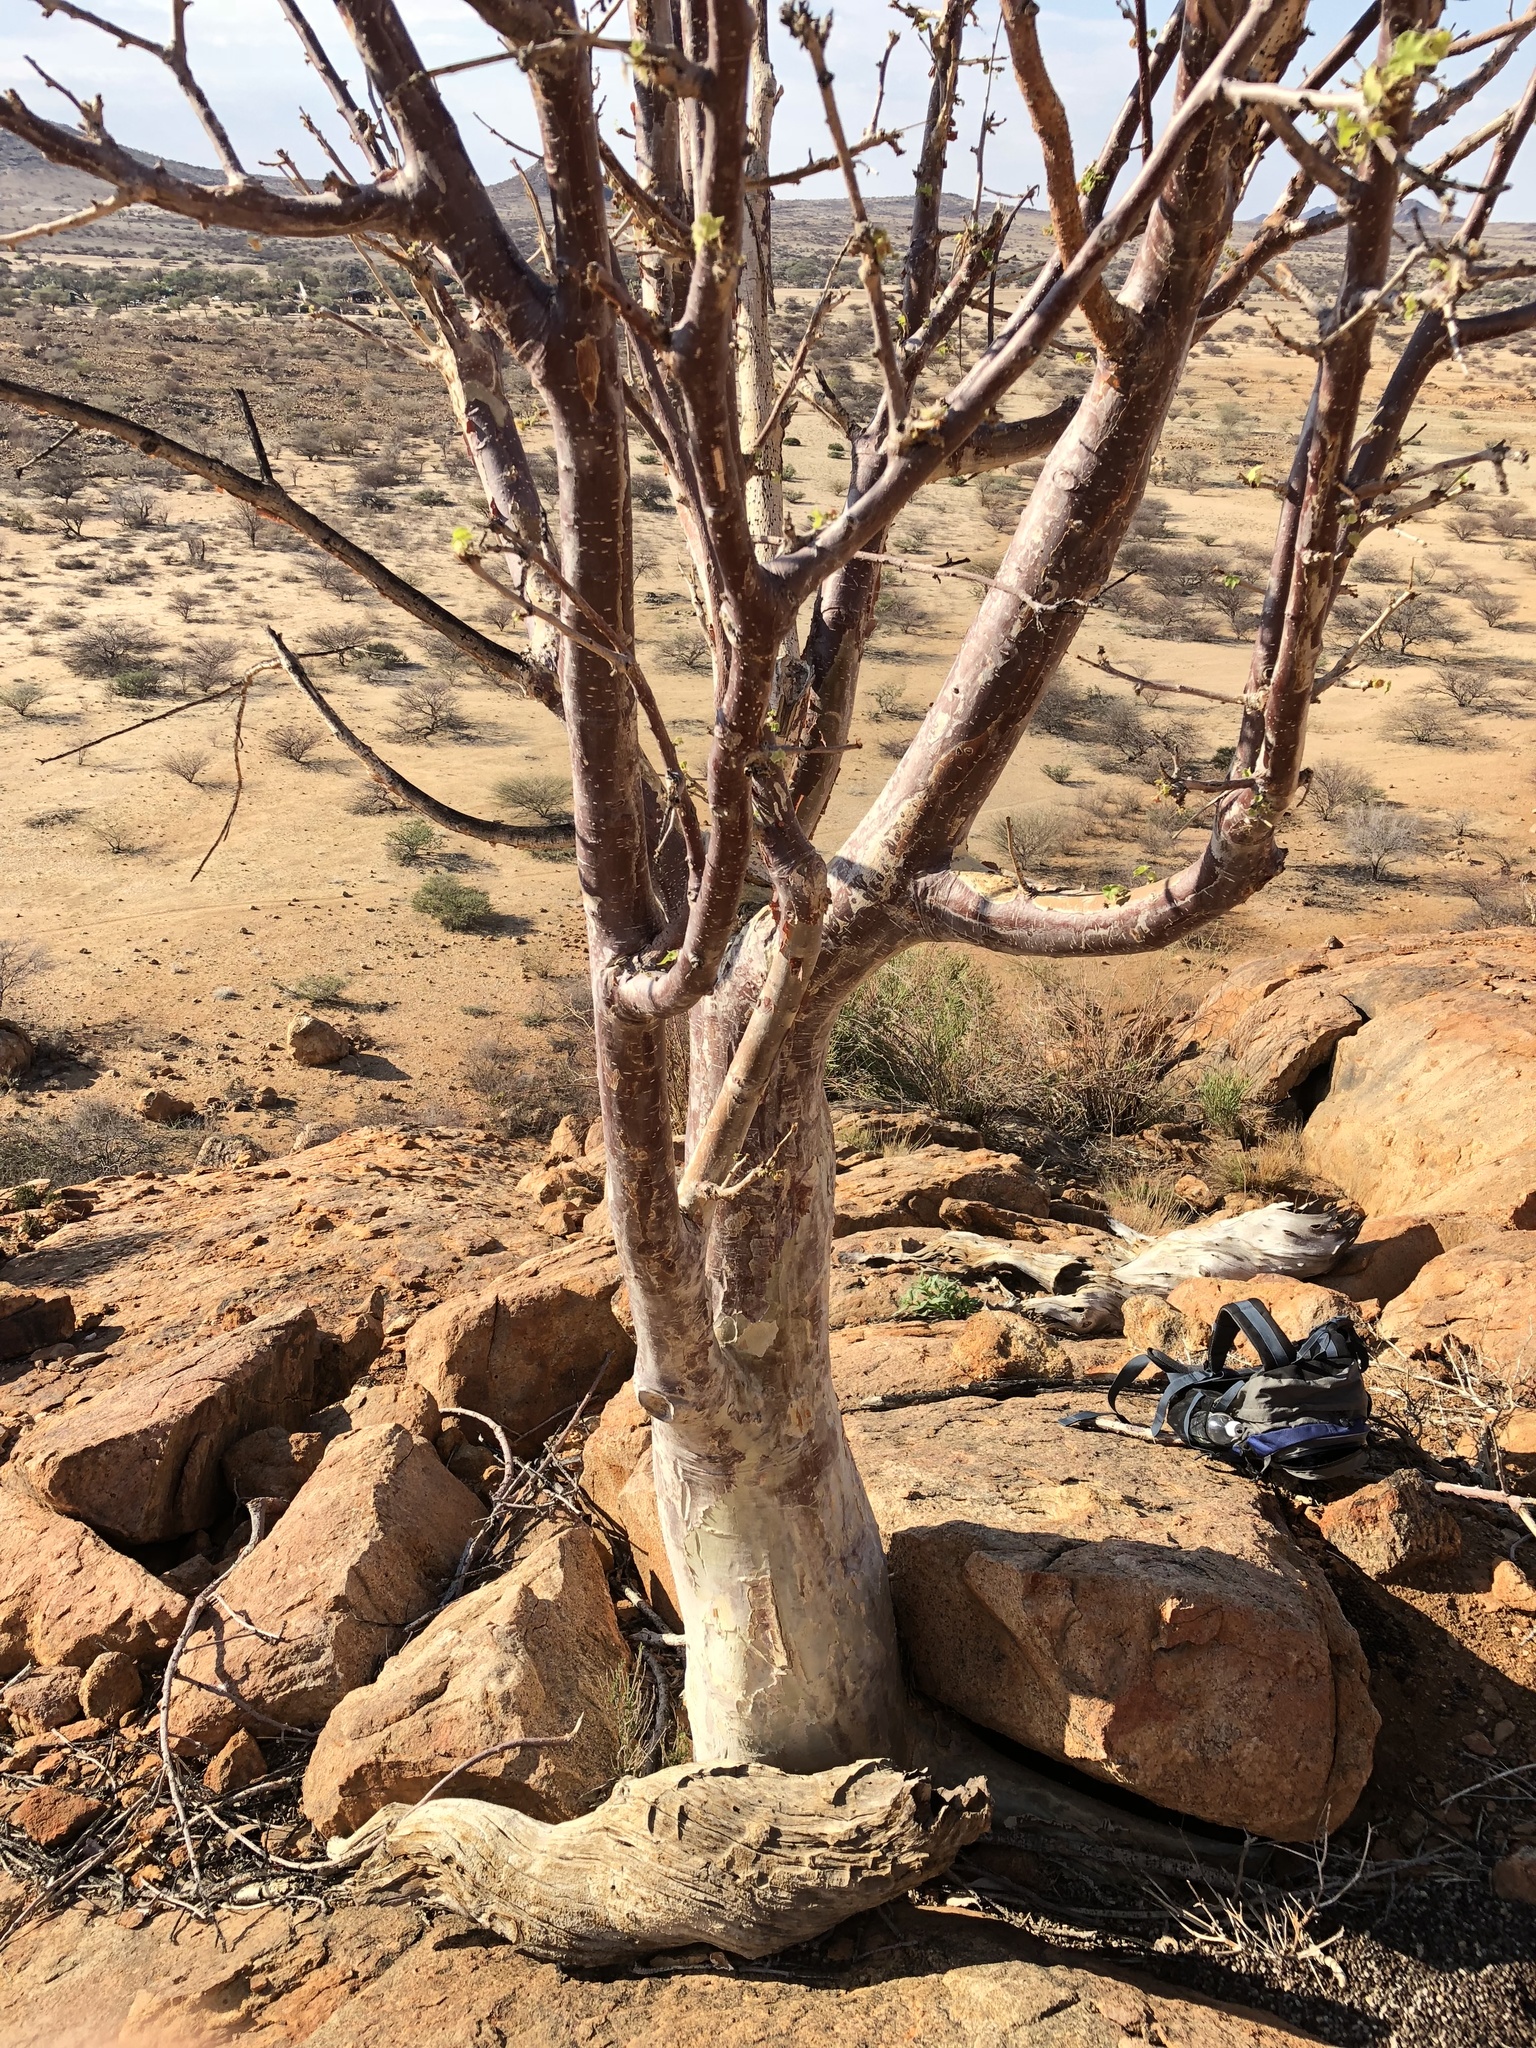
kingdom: Plantae
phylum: Tracheophyta
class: Magnoliopsida
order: Malvales
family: Malvaceae
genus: Sterculia
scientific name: Sterculia africana
